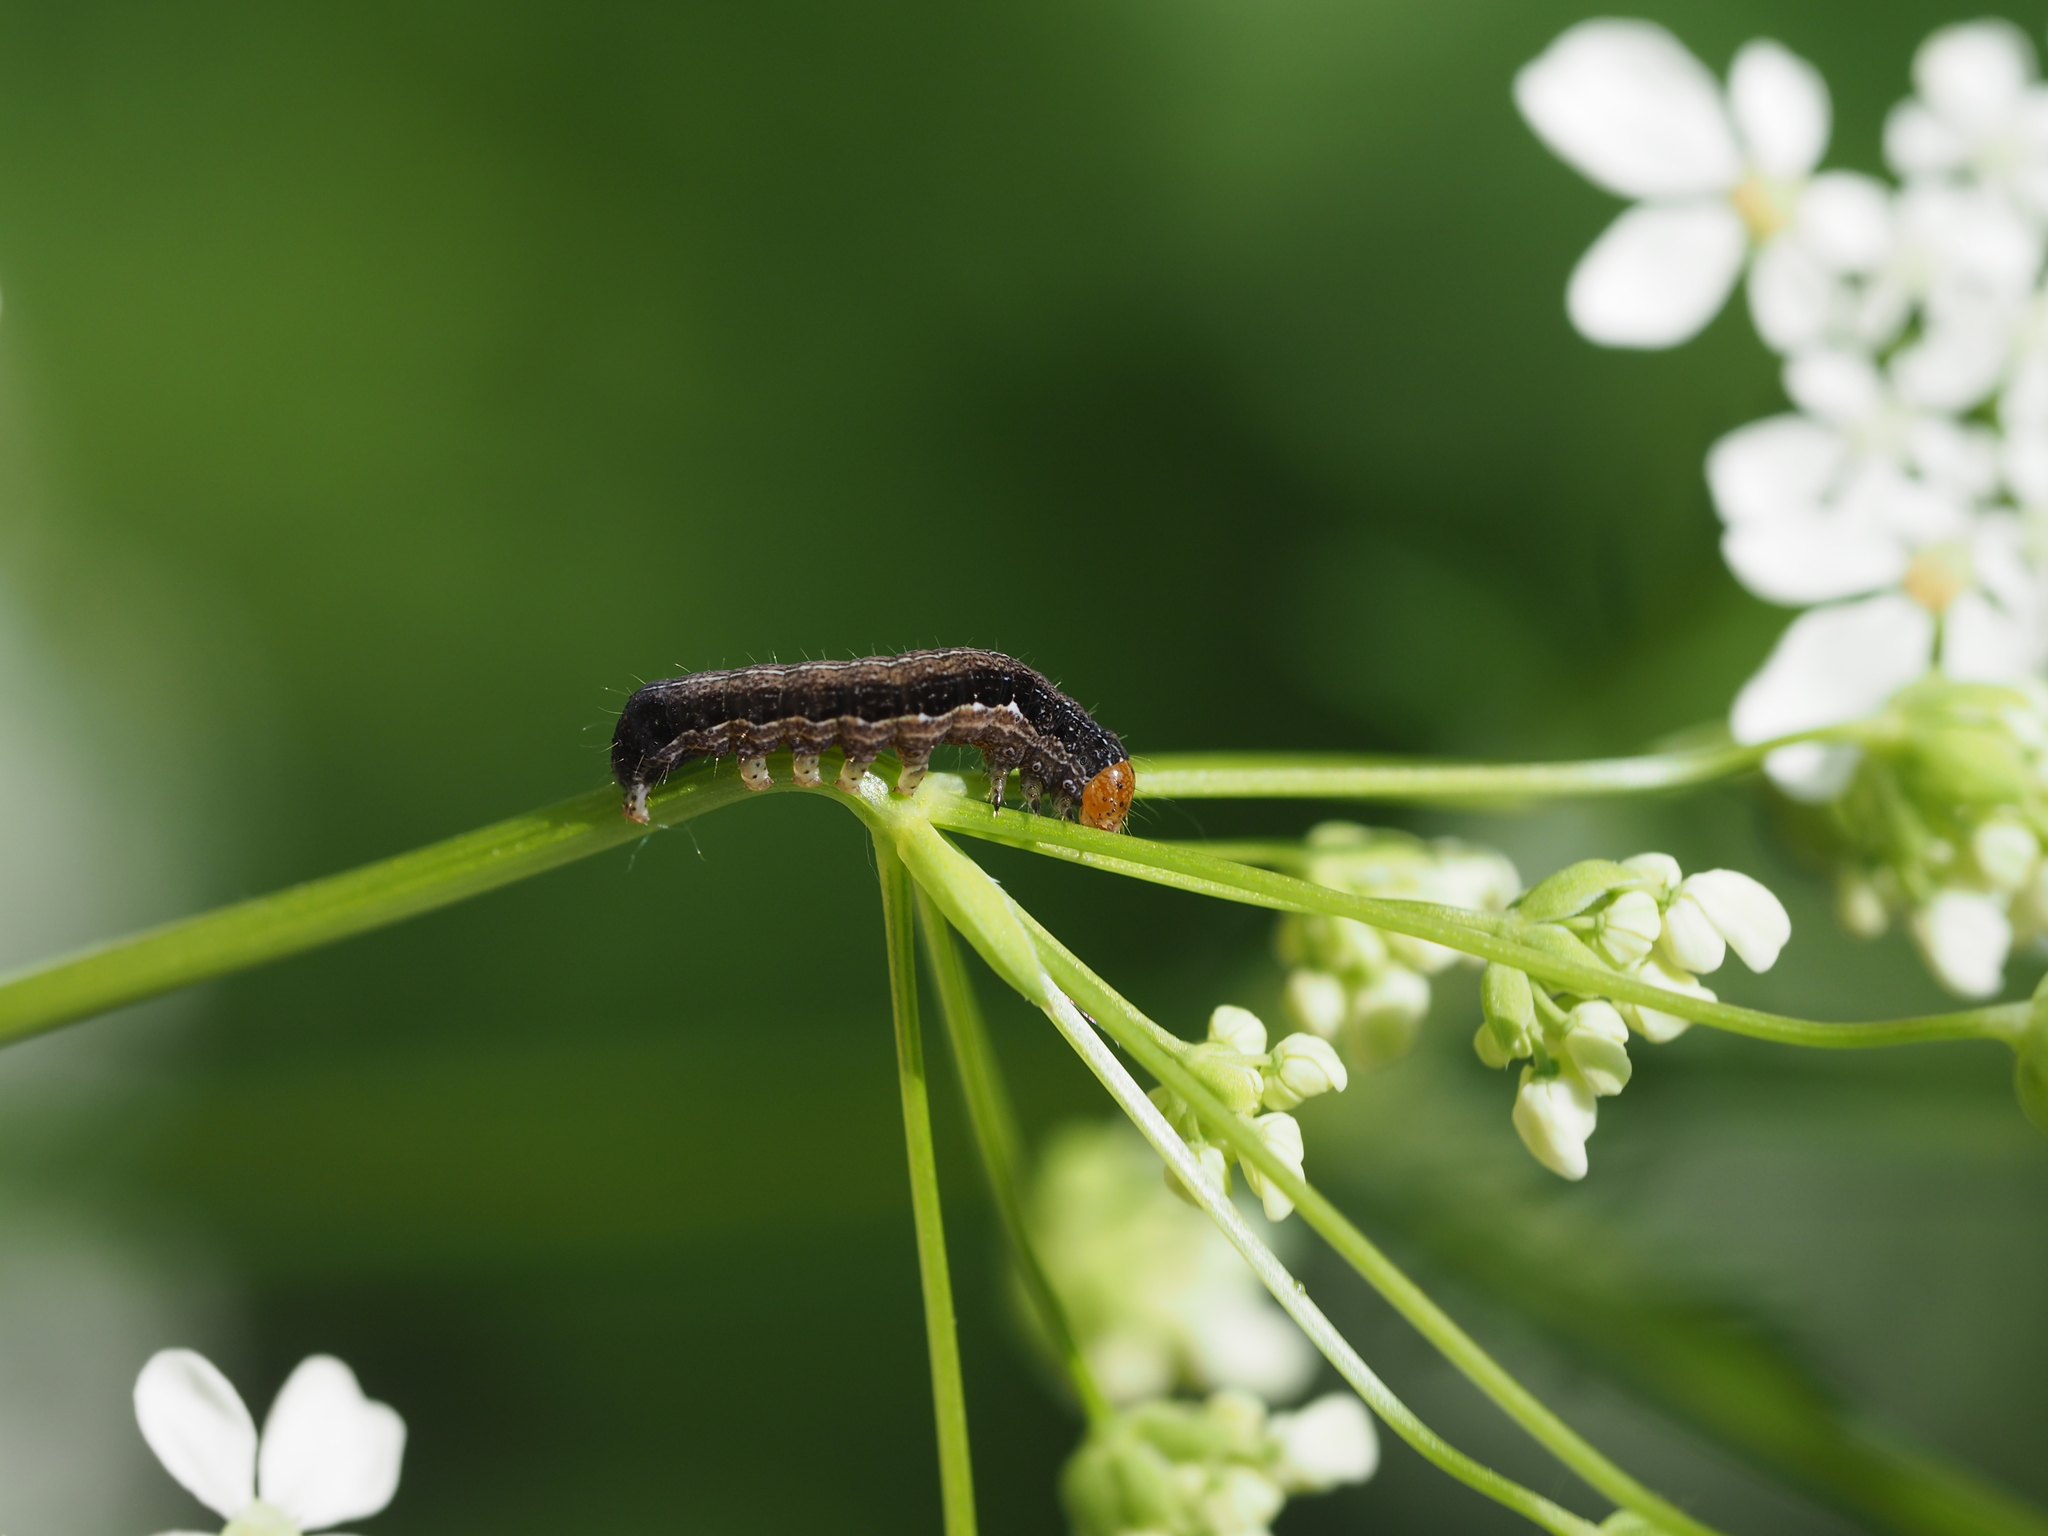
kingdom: Animalia
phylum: Arthropoda
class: Insecta
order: Lepidoptera
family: Noctuidae
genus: Anorthoa
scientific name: Anorthoa munda
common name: Twin-spotted quaker
